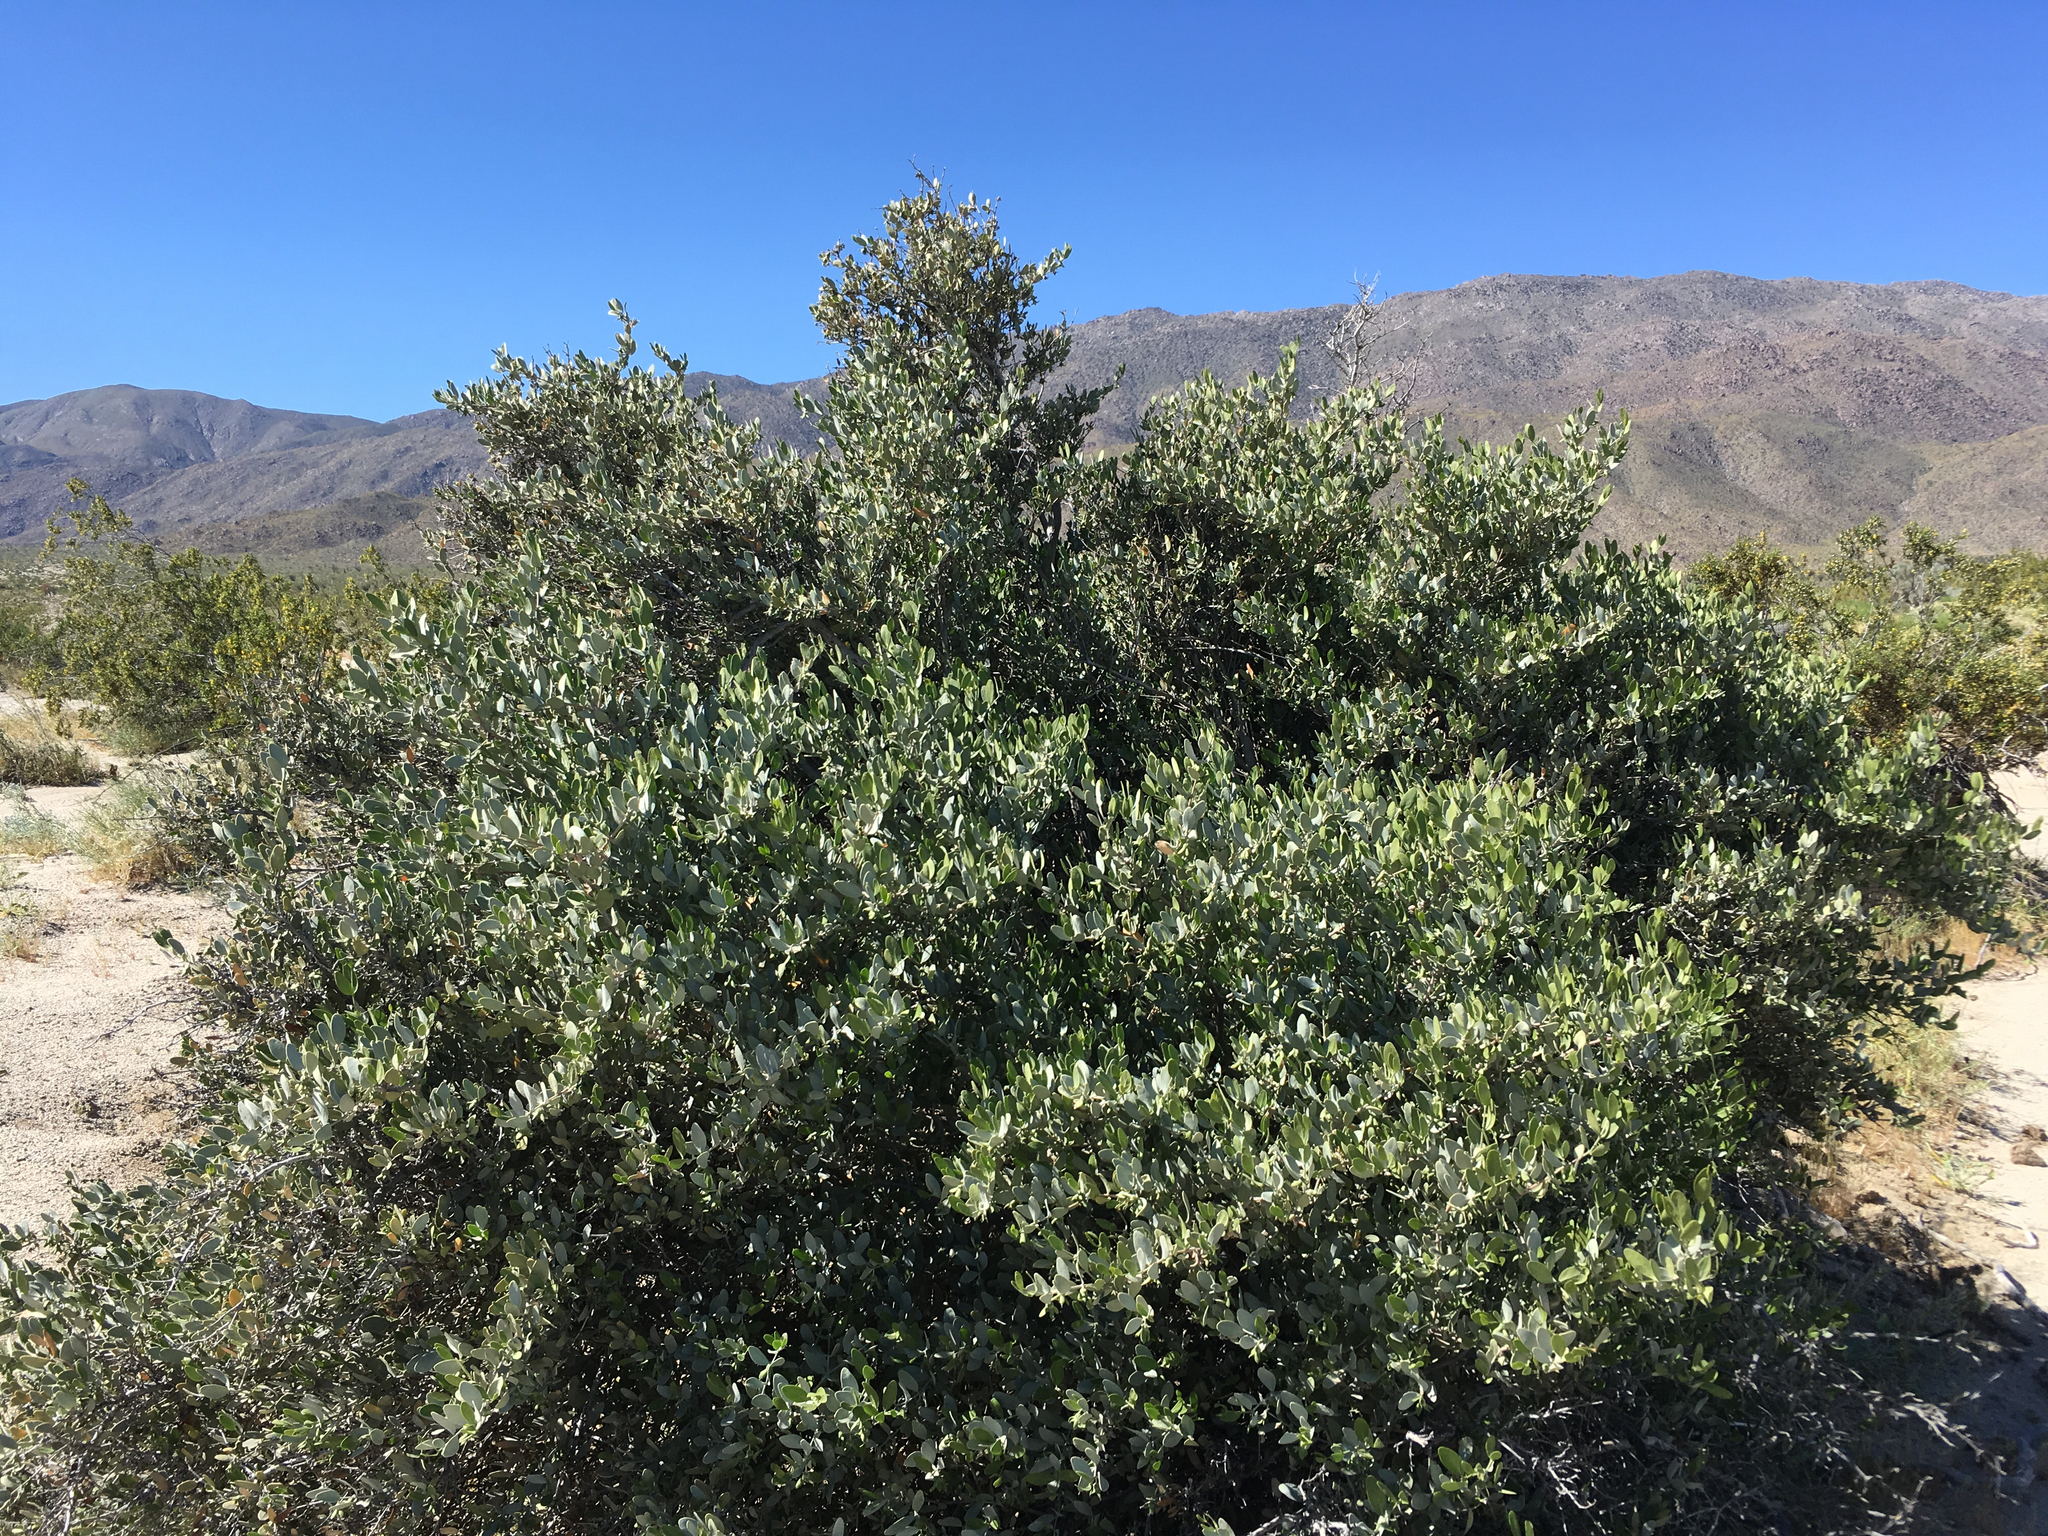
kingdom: Plantae
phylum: Tracheophyta
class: Magnoliopsida
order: Caryophyllales
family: Simmondsiaceae
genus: Simmondsia
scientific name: Simmondsia chinensis
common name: Jojoba
